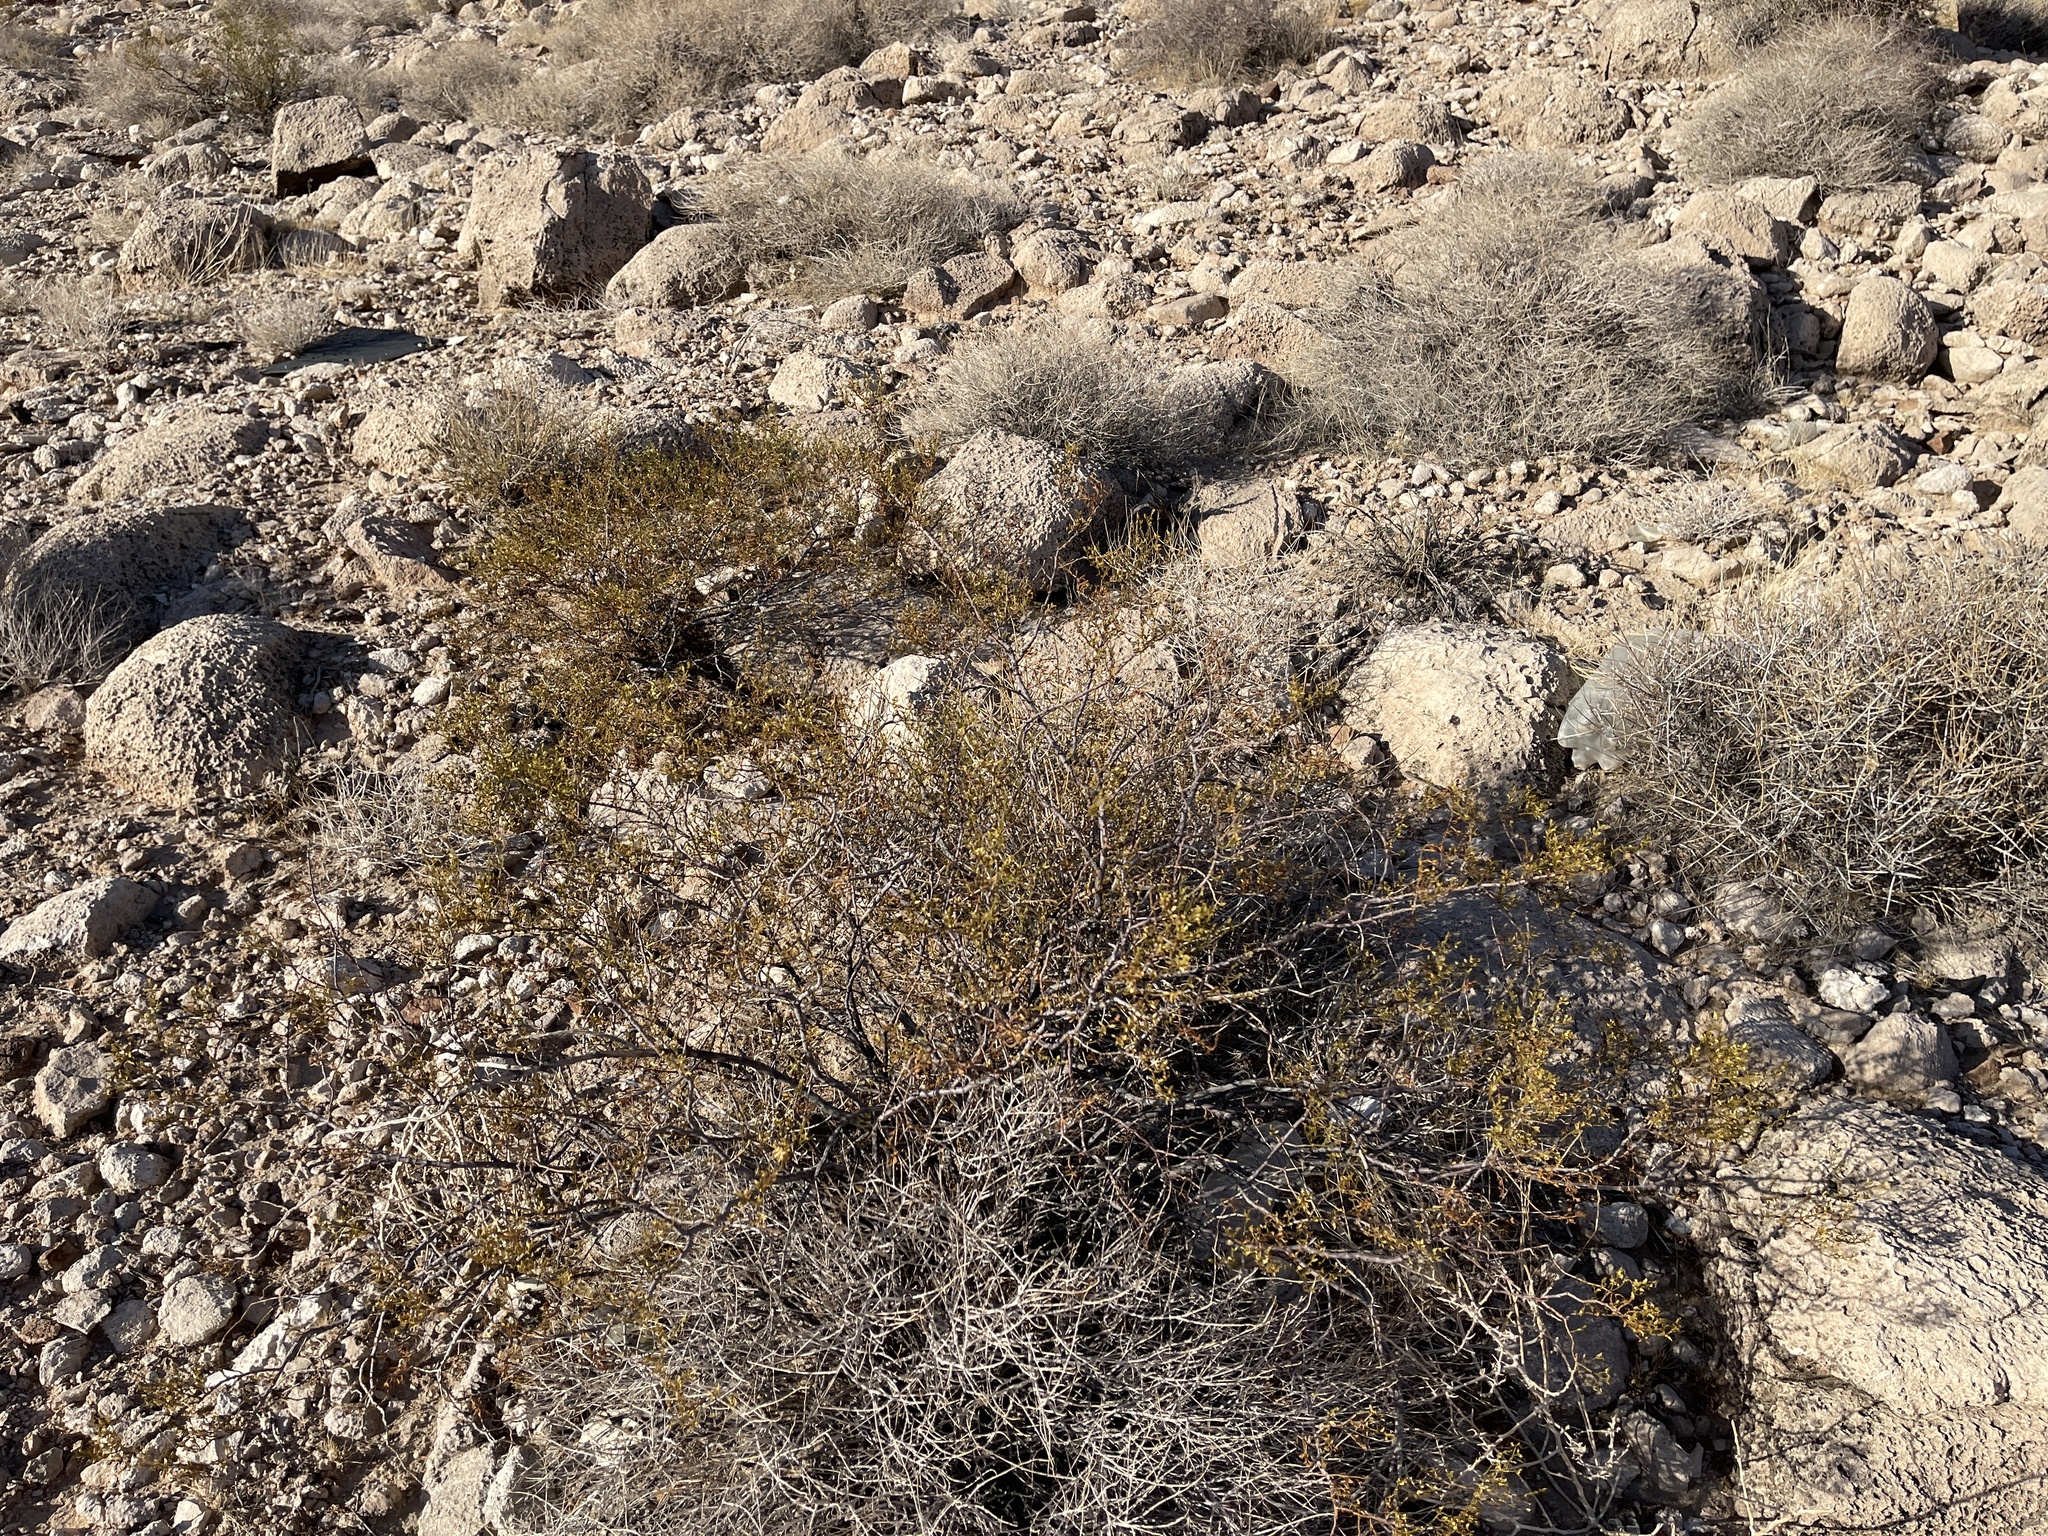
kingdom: Plantae
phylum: Tracheophyta
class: Magnoliopsida
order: Zygophyllales
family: Zygophyllaceae
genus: Larrea
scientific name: Larrea tridentata
